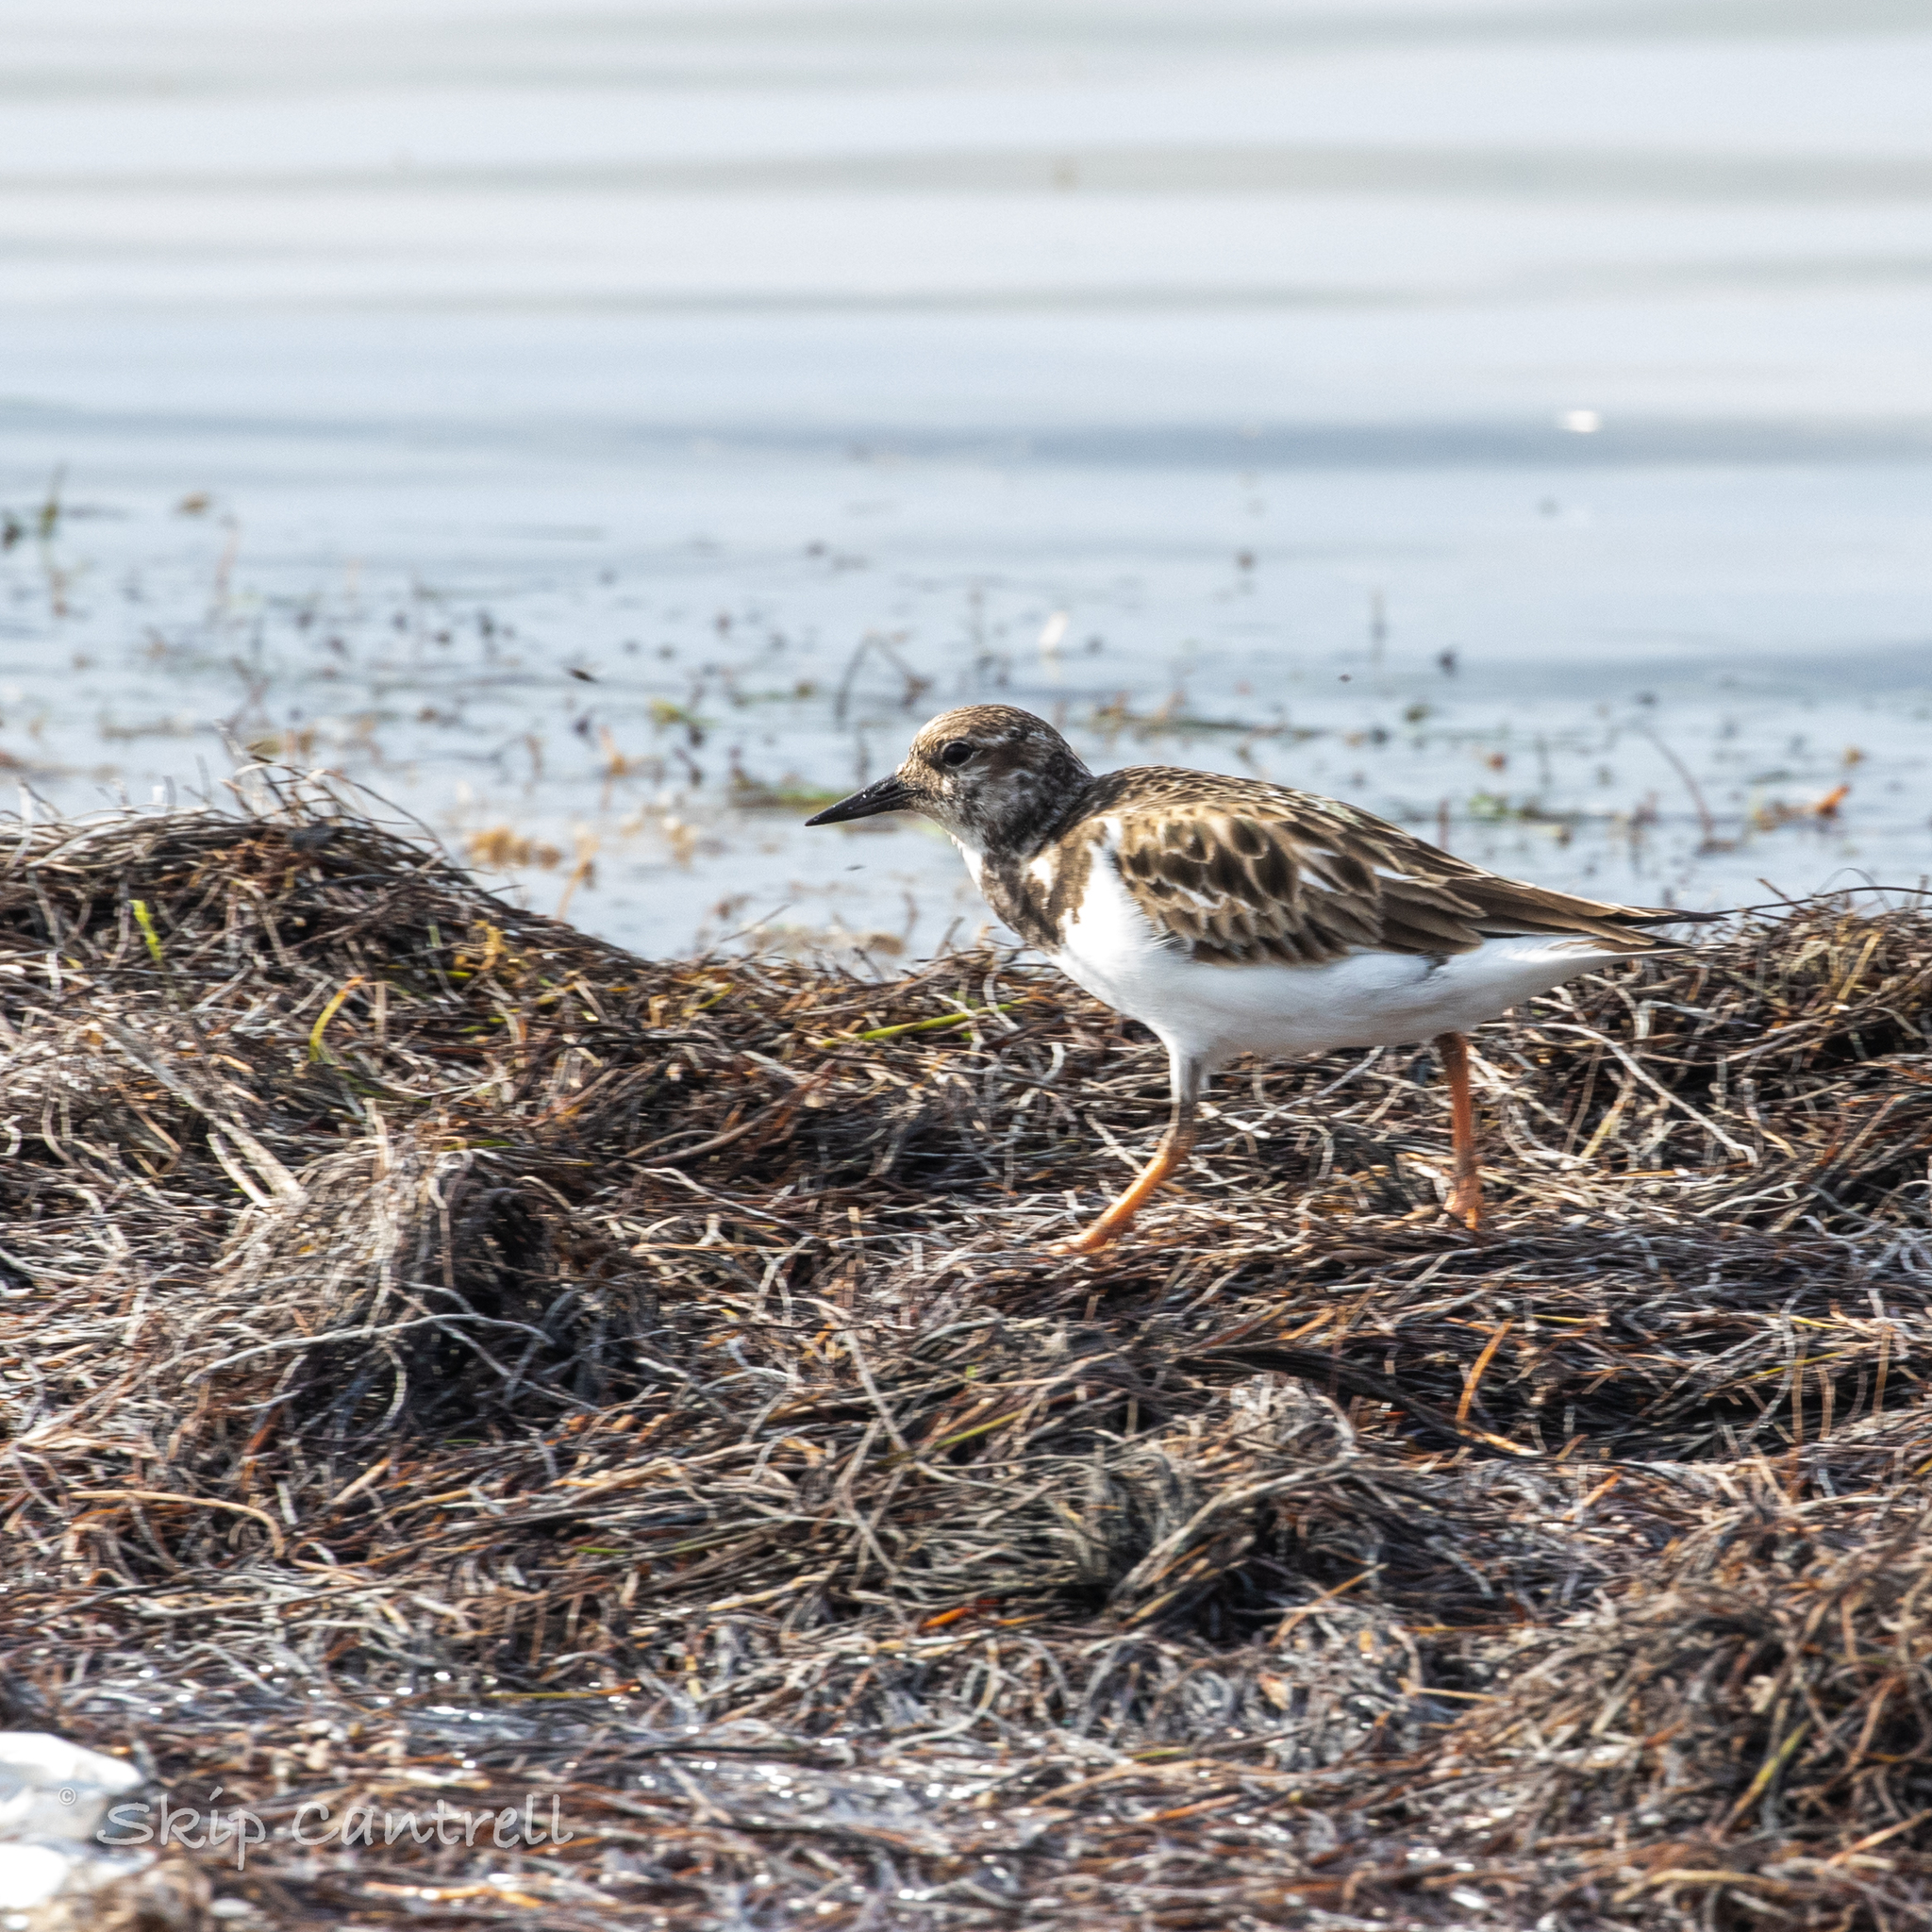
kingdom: Animalia
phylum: Chordata
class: Aves
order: Charadriiformes
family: Scolopacidae
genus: Arenaria
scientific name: Arenaria interpres
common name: Ruddy turnstone
